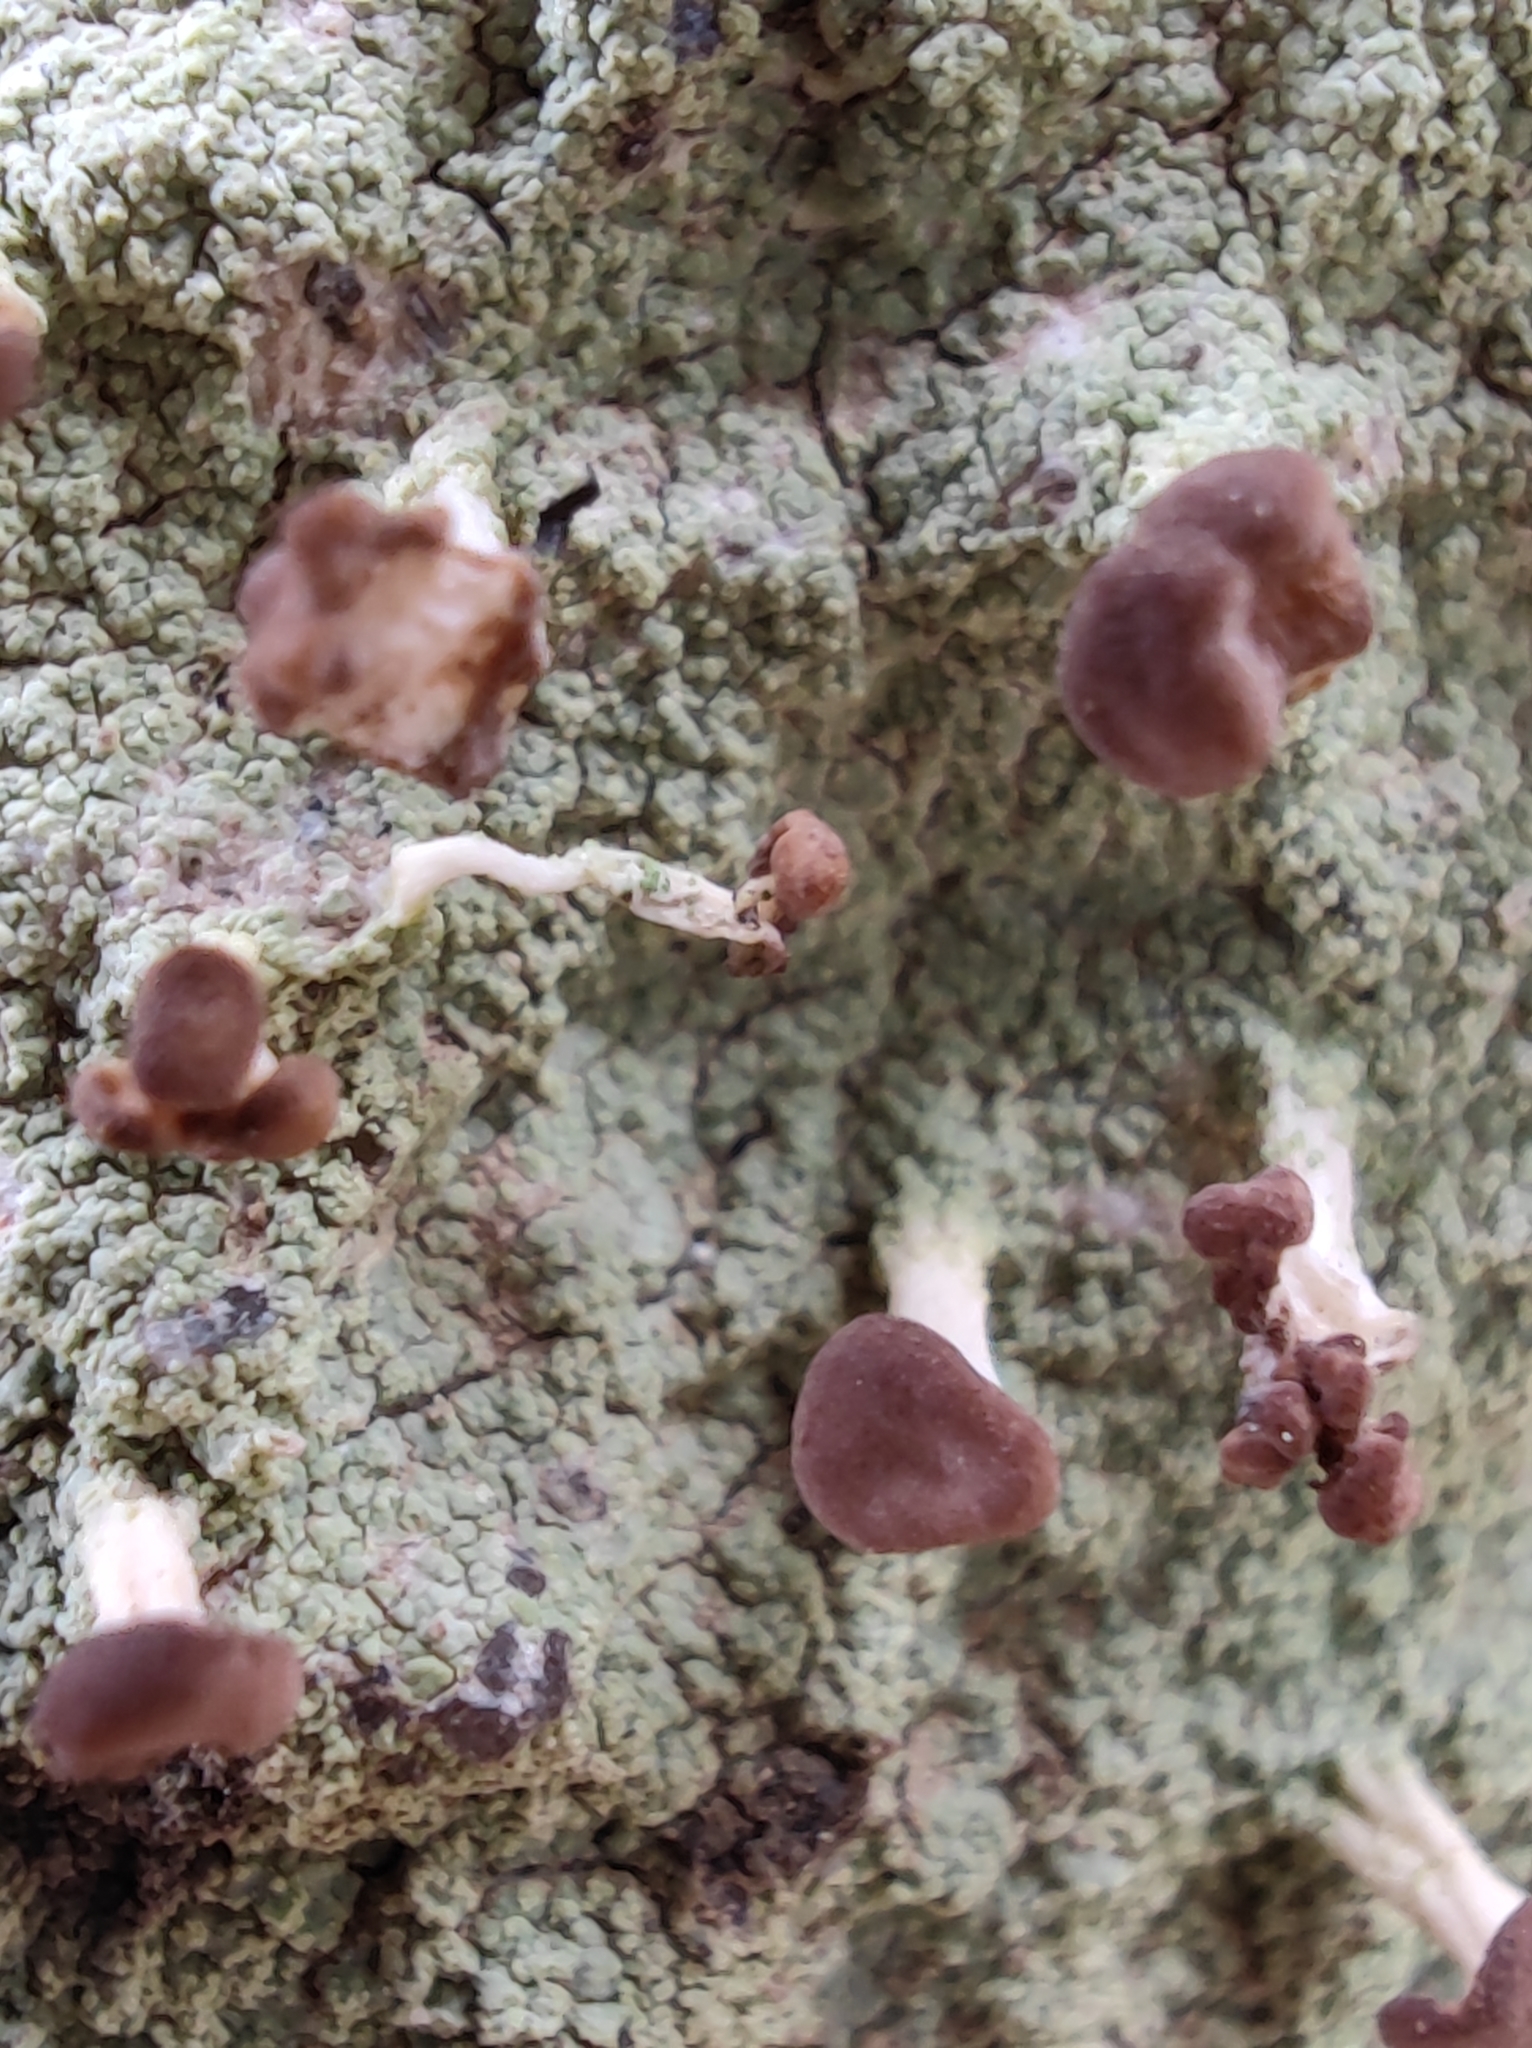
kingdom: Fungi
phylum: Ascomycota
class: Lecanoromycetes
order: Baeomycetales
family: Baeomycetaceae
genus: Baeomyces
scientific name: Baeomyces rufus
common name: Brown beret lichen
